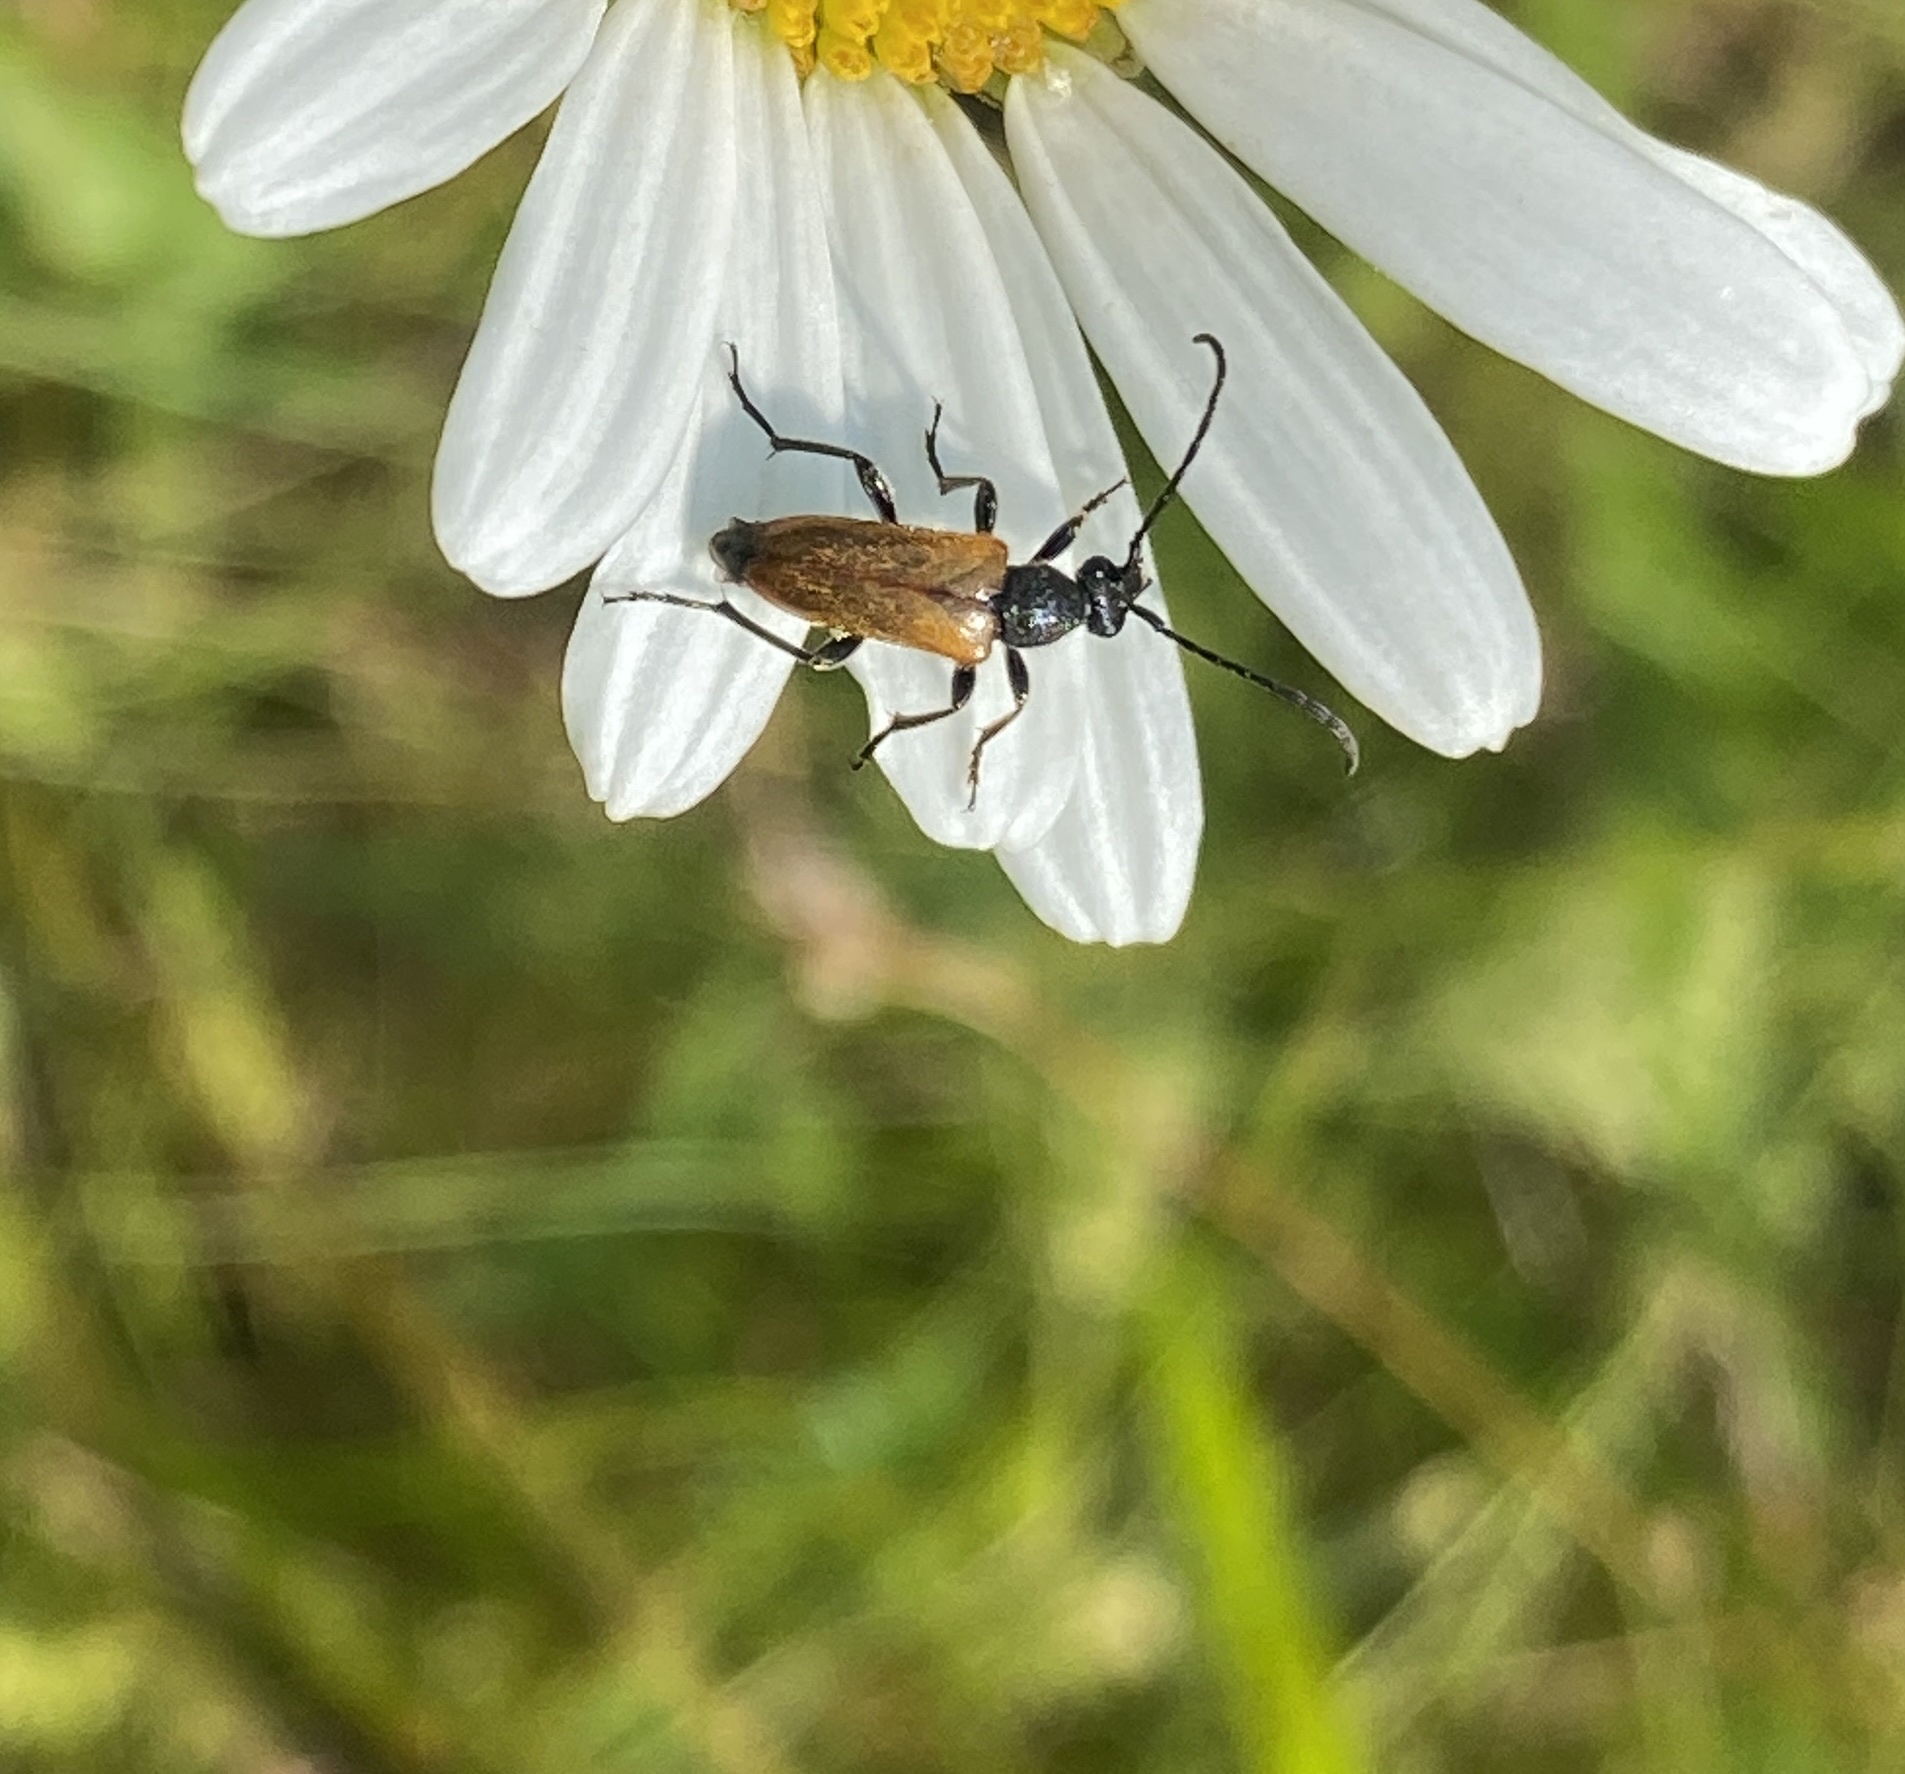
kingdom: Animalia
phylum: Arthropoda
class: Insecta
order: Coleoptera
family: Cerambycidae
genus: Pseudovadonia
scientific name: Pseudovadonia livida
